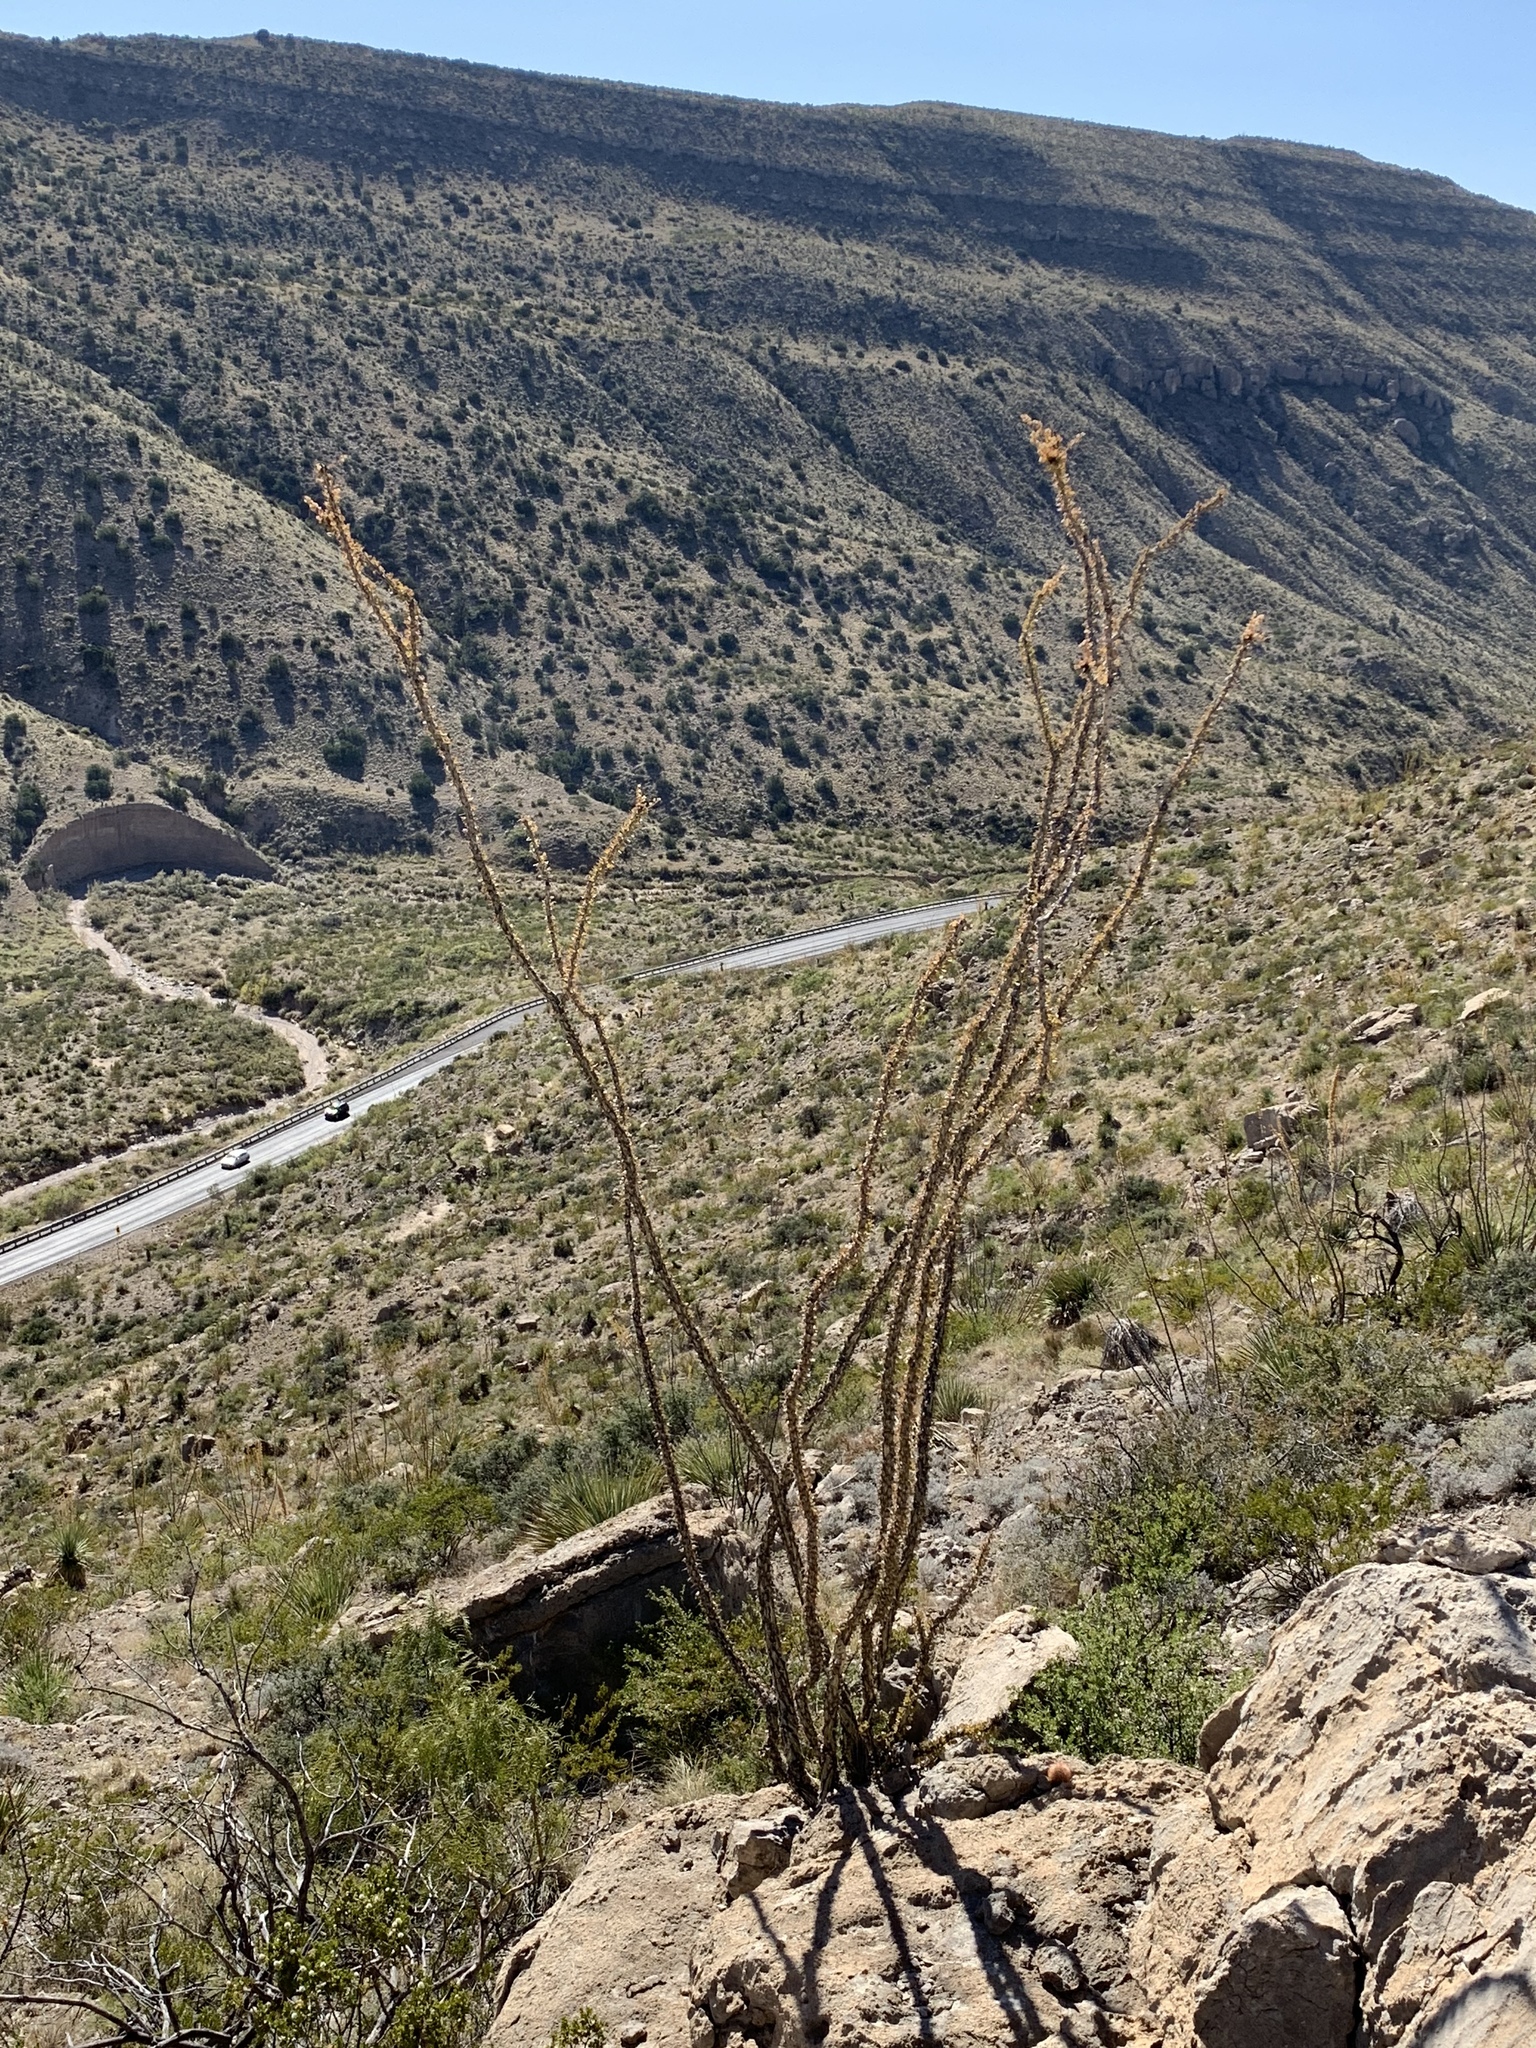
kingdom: Plantae
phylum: Tracheophyta
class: Magnoliopsida
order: Ericales
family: Fouquieriaceae
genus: Fouquieria
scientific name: Fouquieria splendens
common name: Vine-cactus
